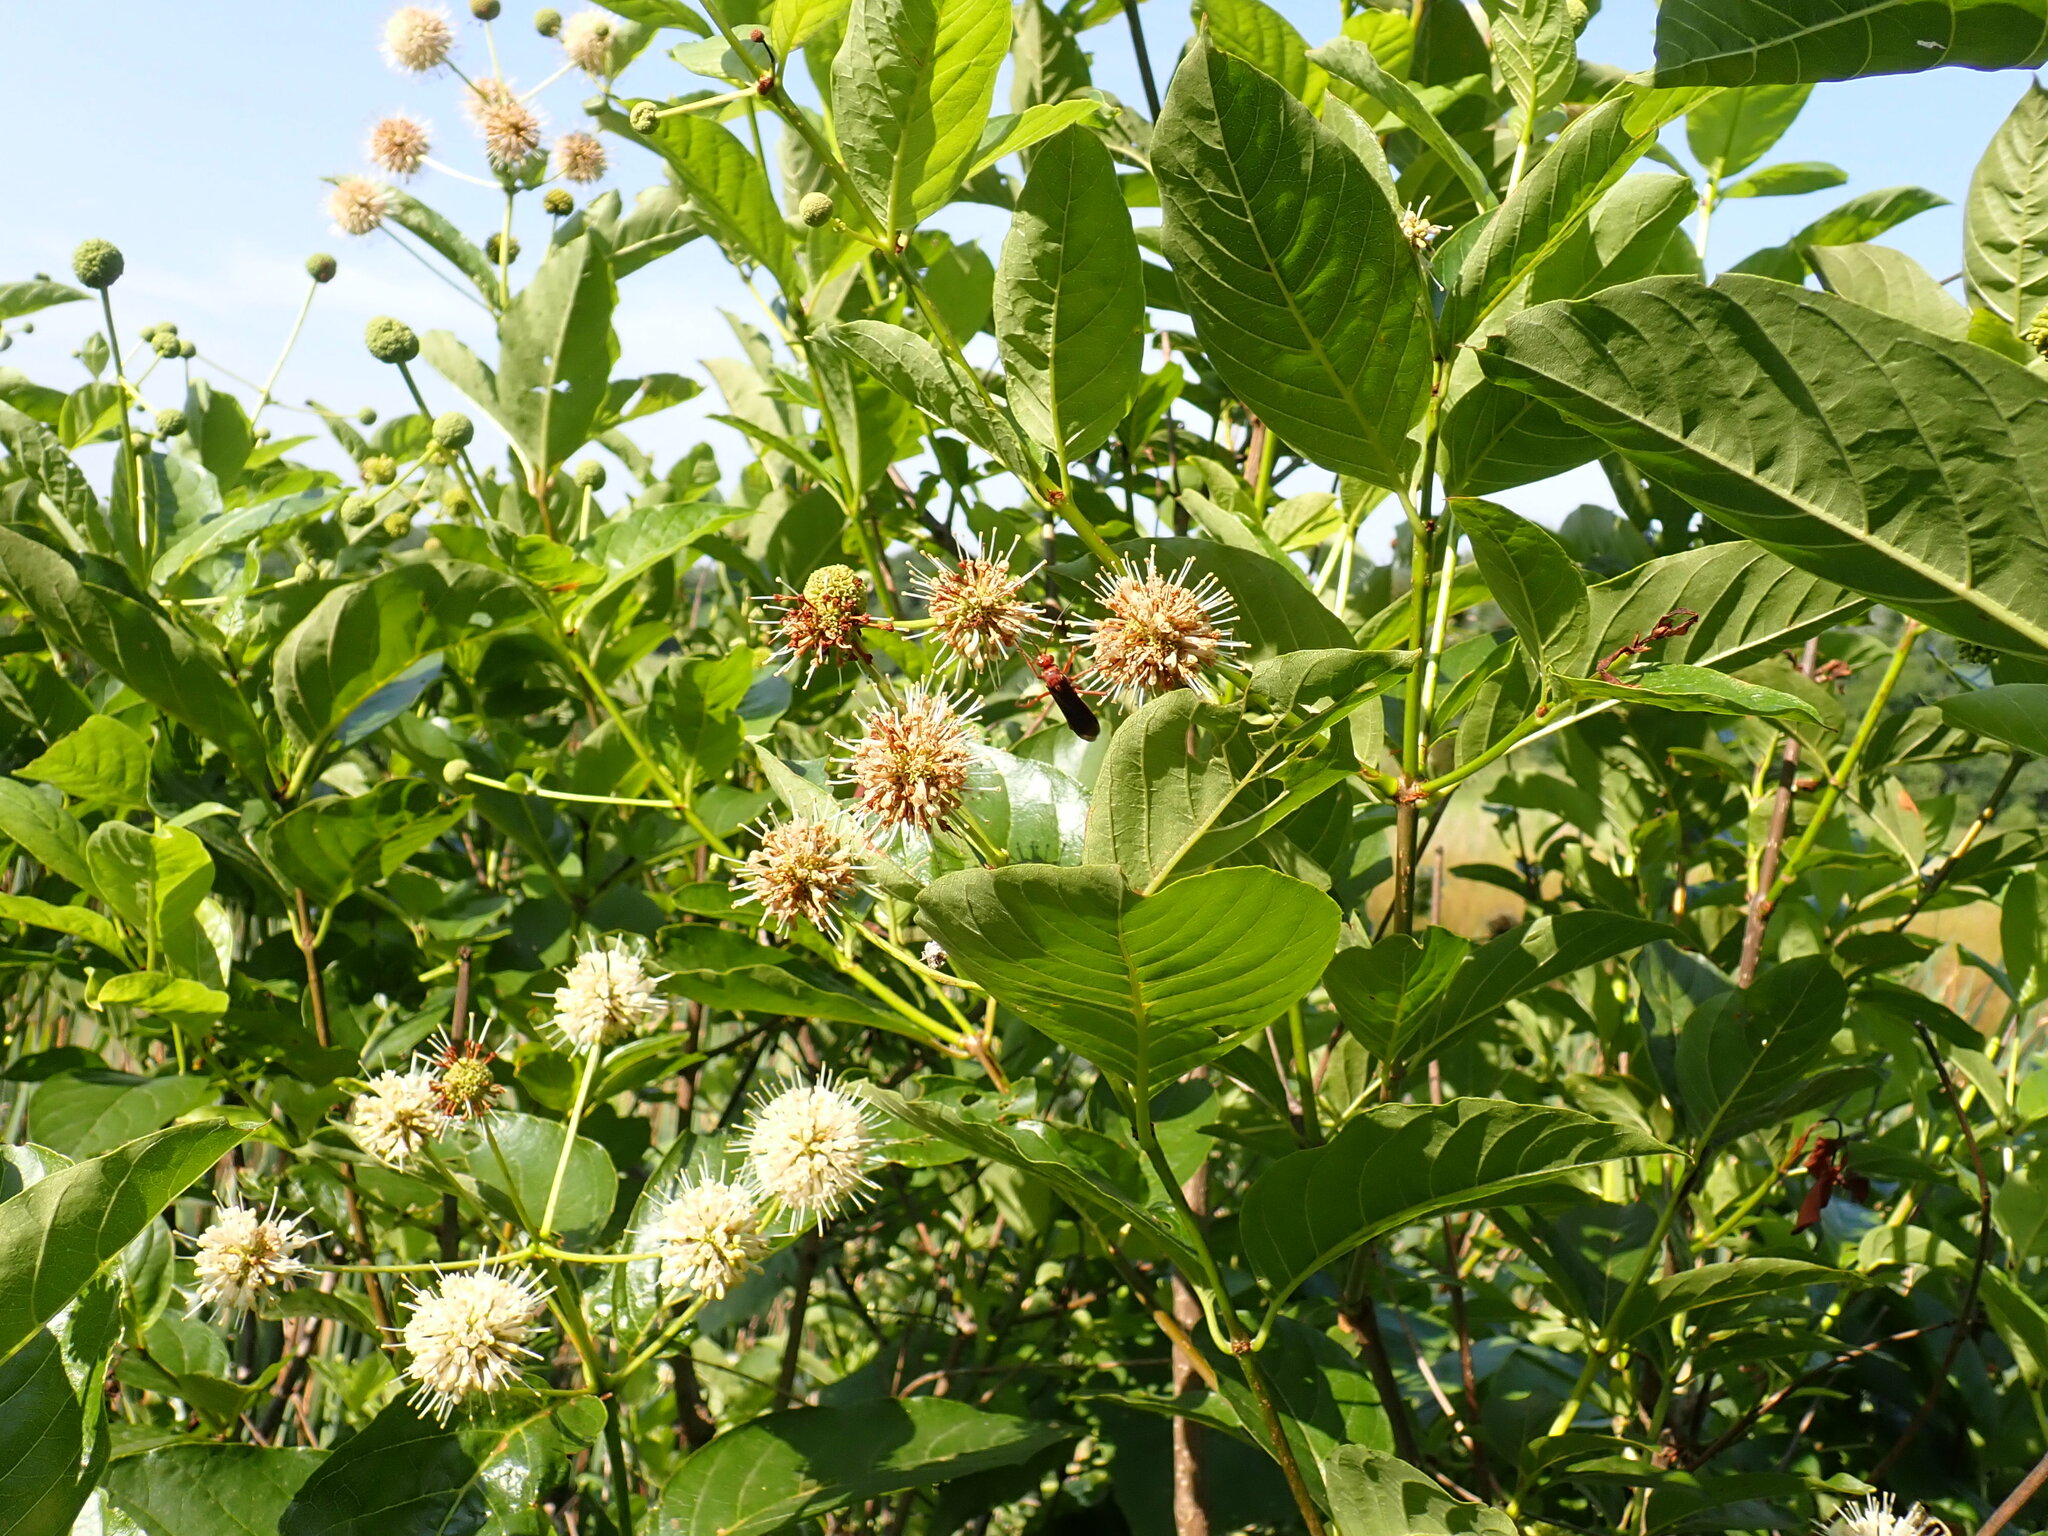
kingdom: Plantae
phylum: Tracheophyta
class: Magnoliopsida
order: Gentianales
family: Rubiaceae
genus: Cephalanthus
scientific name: Cephalanthus occidentalis
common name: Button-willow
